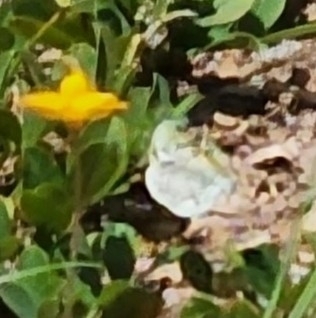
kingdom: Animalia
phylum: Arthropoda
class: Insecta
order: Lepidoptera
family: Pieridae
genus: Eurema
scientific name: Eurema daira
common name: Barred sulphur
